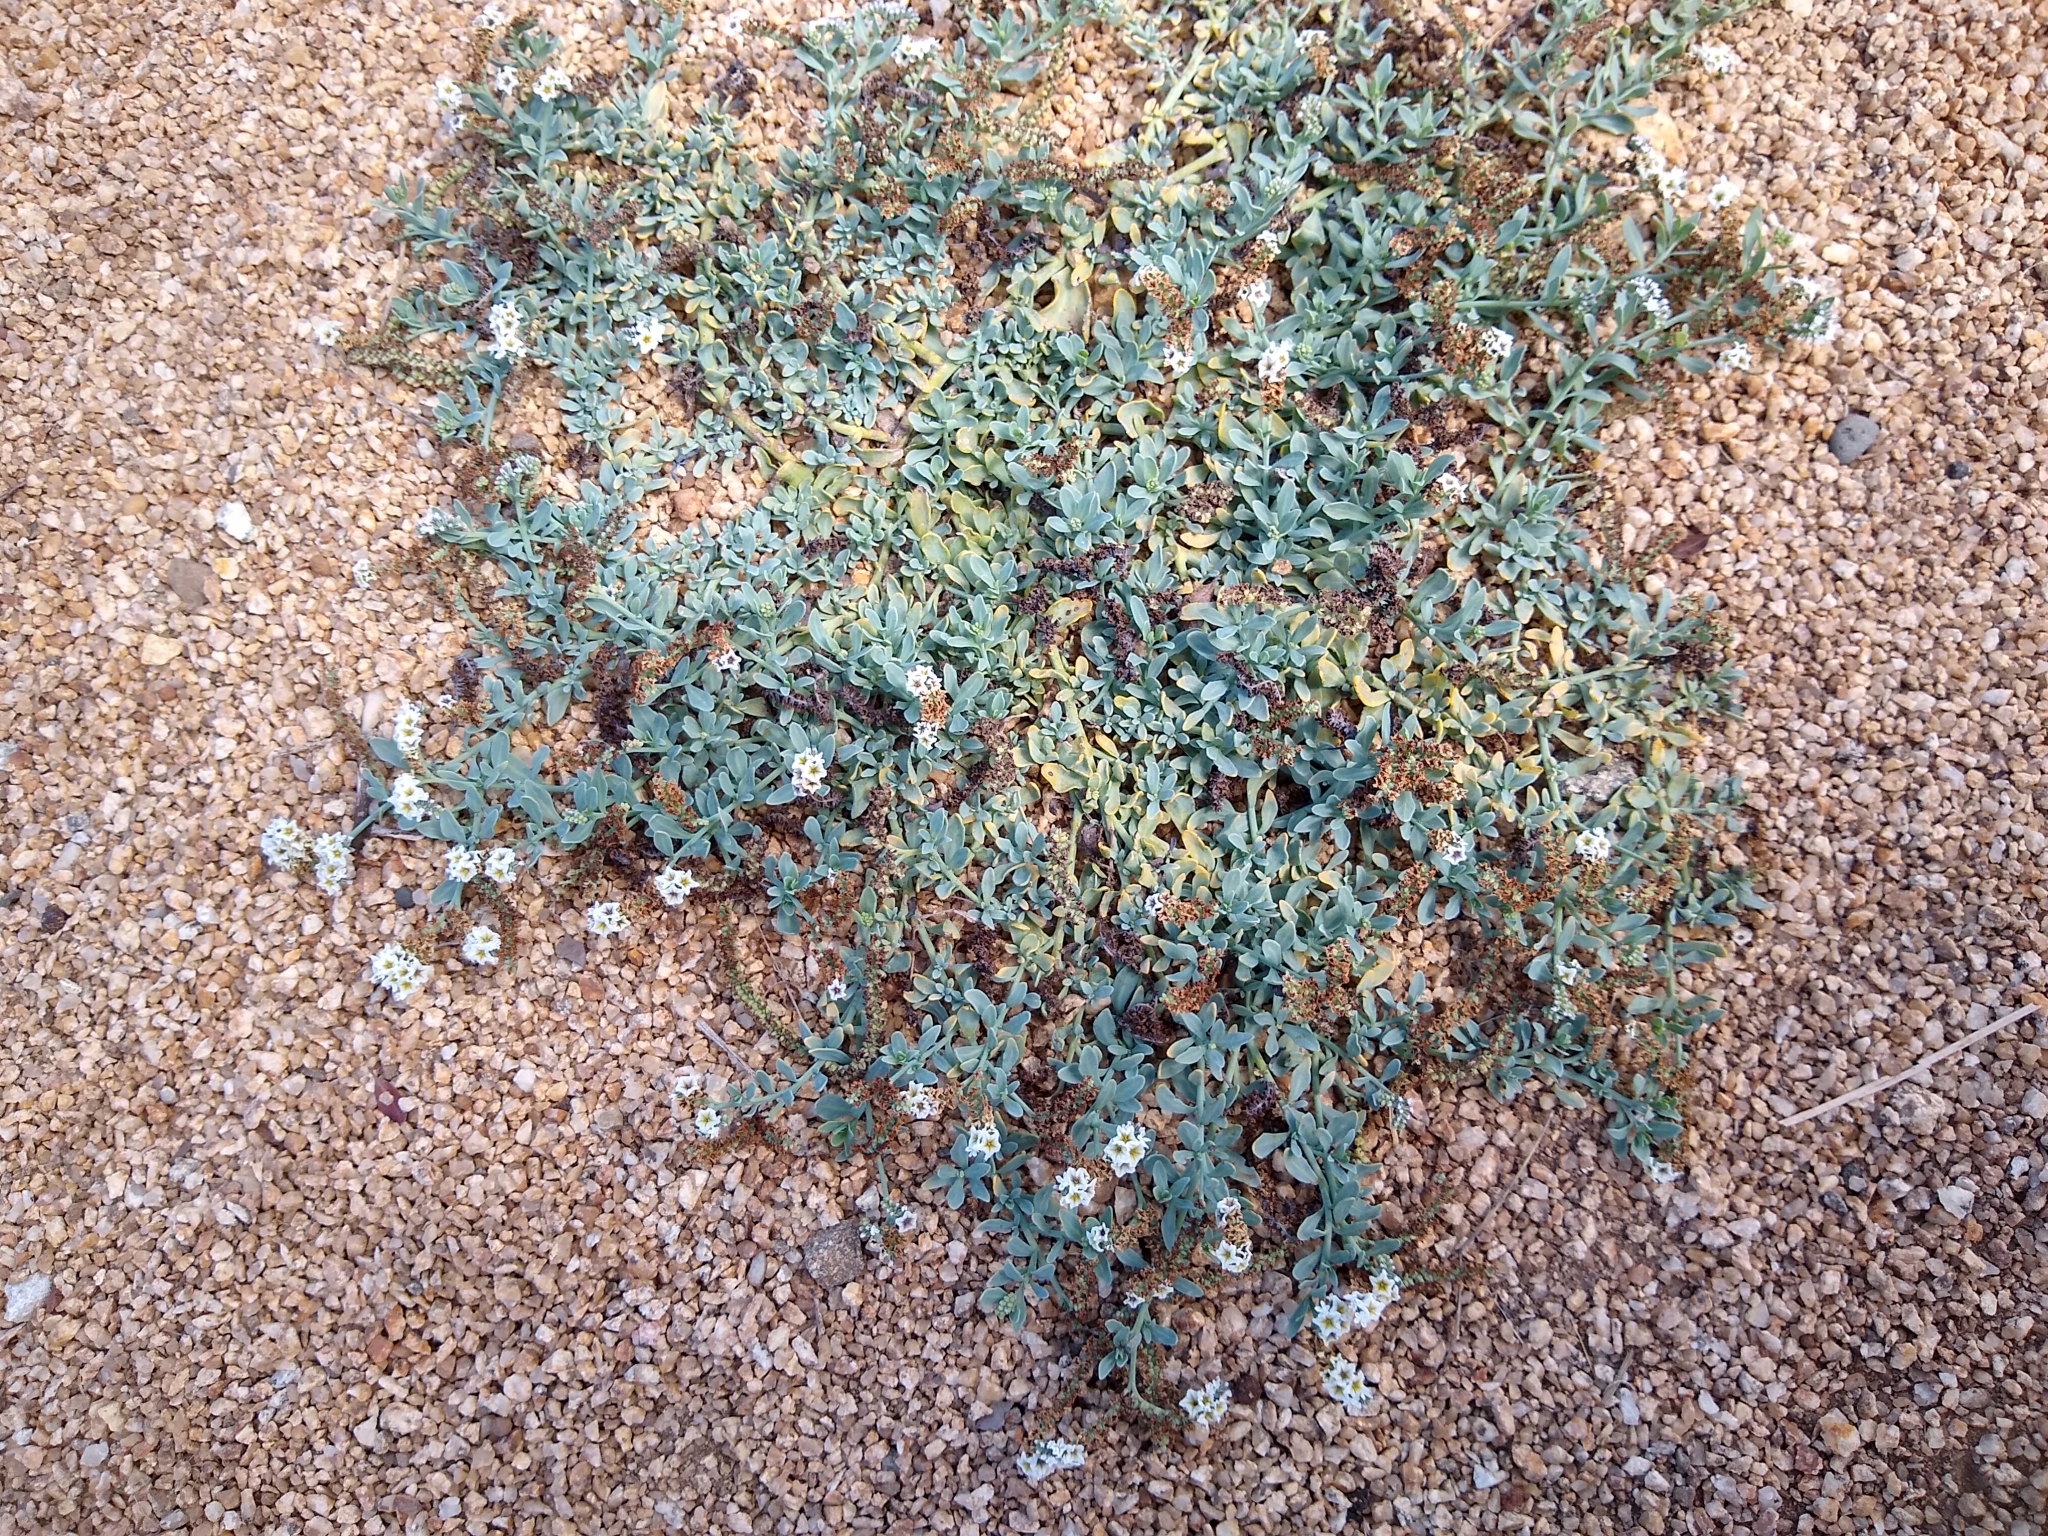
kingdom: Plantae
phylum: Tracheophyta
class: Magnoliopsida
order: Boraginales
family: Heliotropiaceae
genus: Heliotropium
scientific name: Heliotropium curassavicum
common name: Seaside heliotrope
